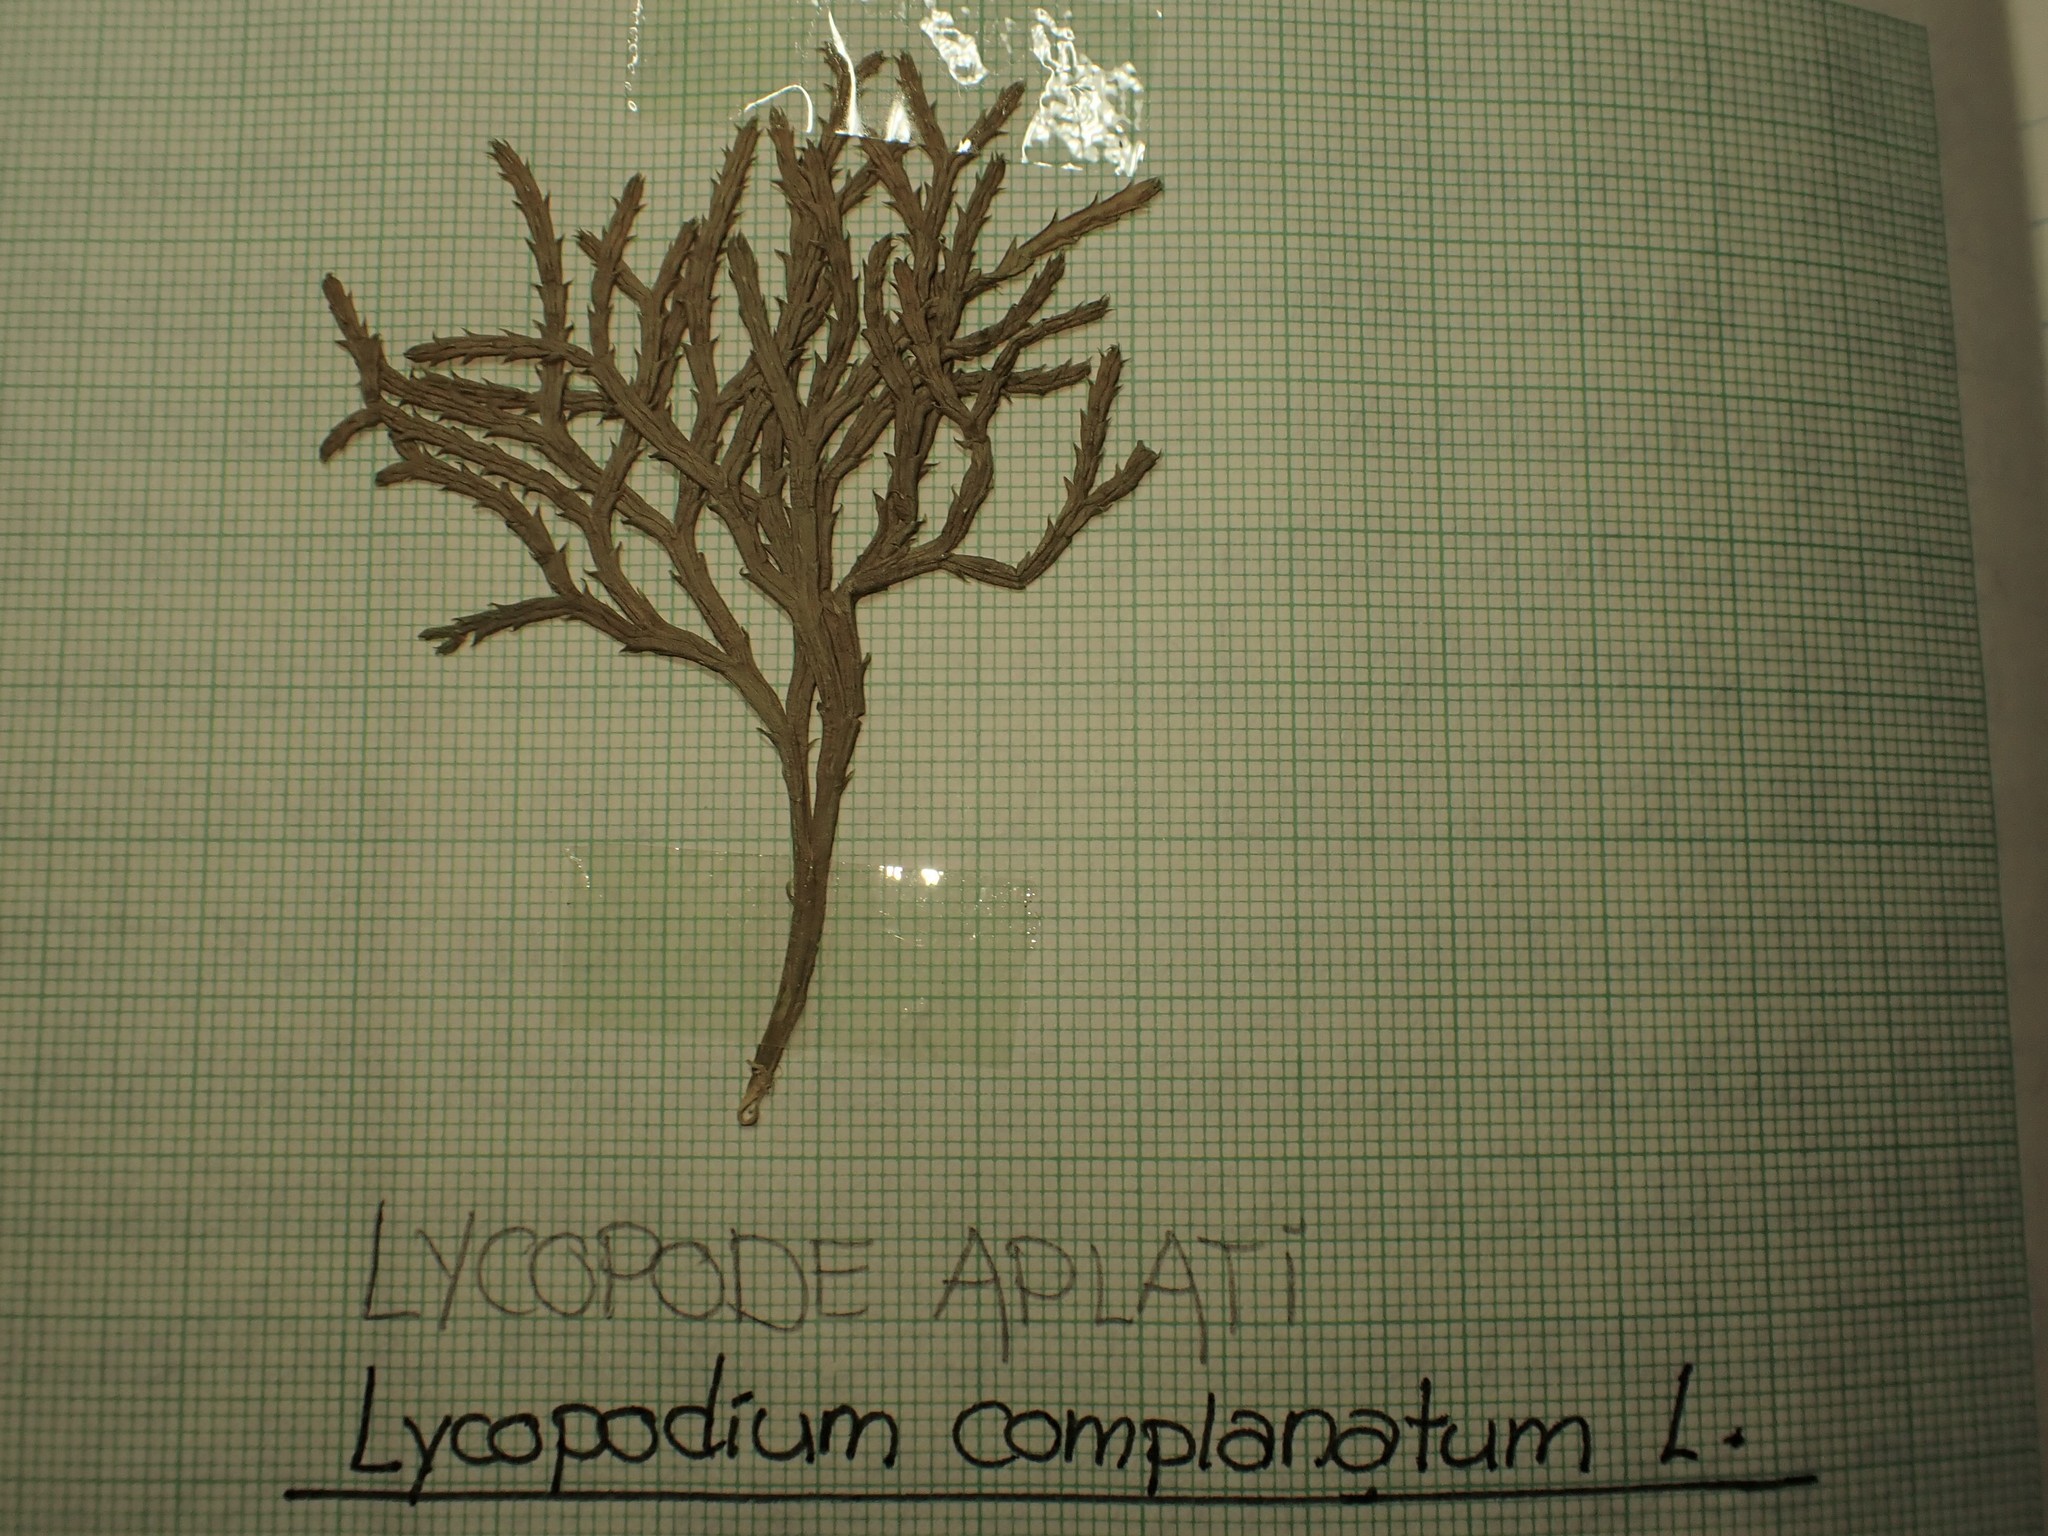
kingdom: Plantae
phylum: Tracheophyta
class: Lycopodiopsida
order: Lycopodiales
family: Lycopodiaceae
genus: Diphasiastrum
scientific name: Diphasiastrum complanatum
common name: Northern running-pine
